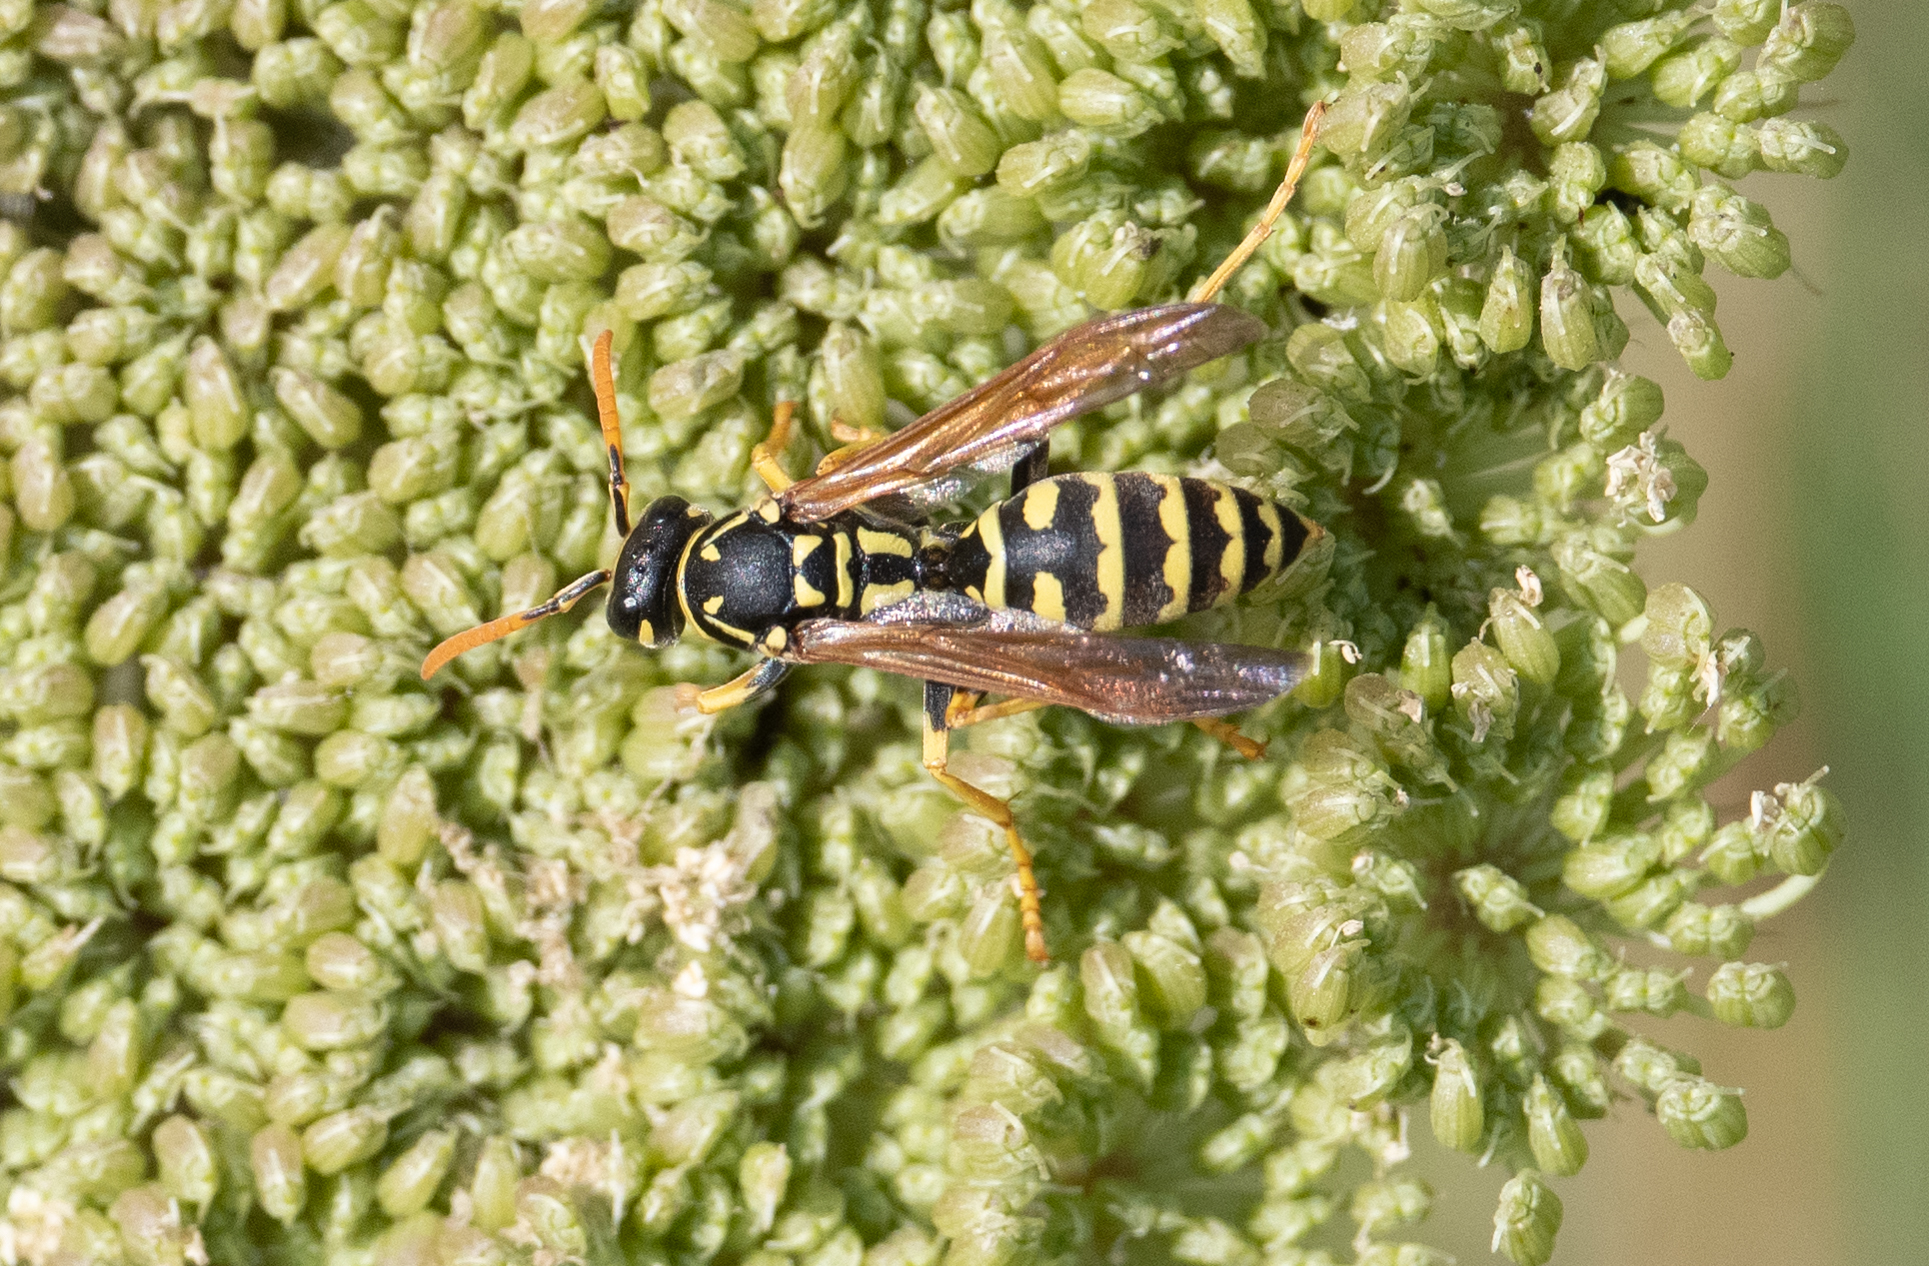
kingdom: Animalia
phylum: Arthropoda
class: Insecta
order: Hymenoptera
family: Eumenidae
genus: Polistes
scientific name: Polistes dominula
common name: Paper wasp
